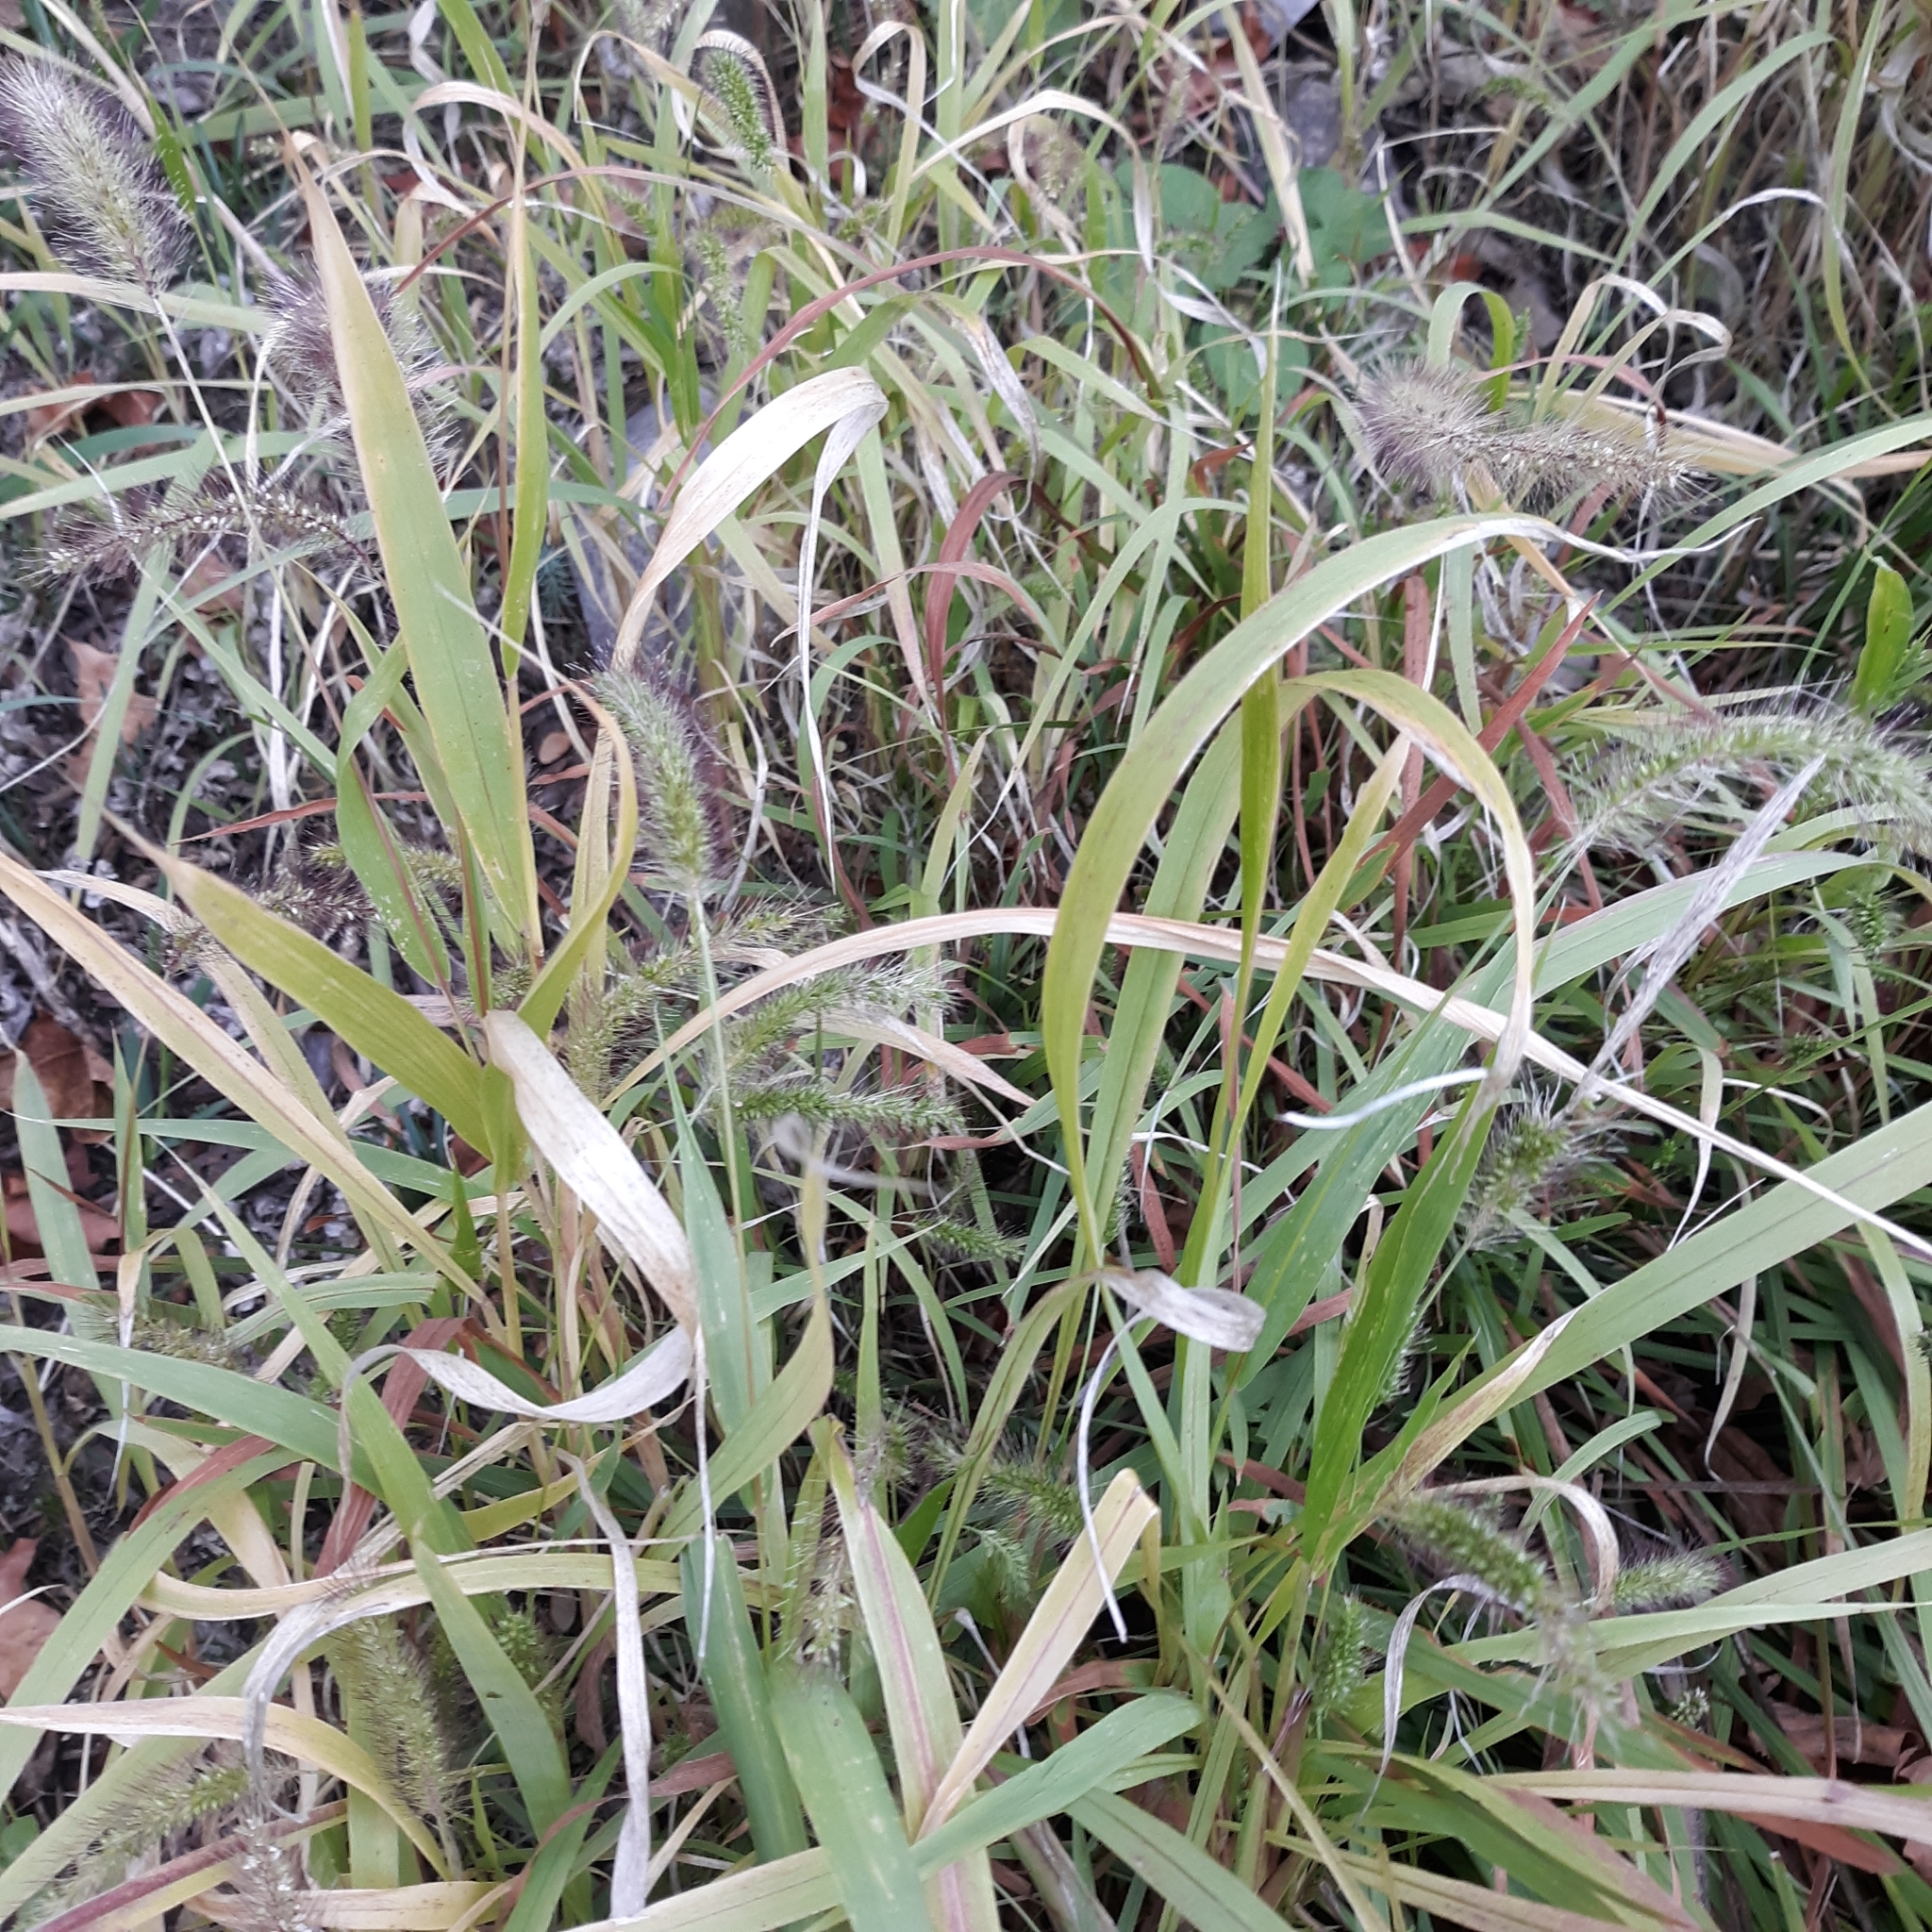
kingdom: Plantae
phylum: Tracheophyta
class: Liliopsida
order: Poales
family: Poaceae
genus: Setaria
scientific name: Setaria viridis
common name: Green bristlegrass
